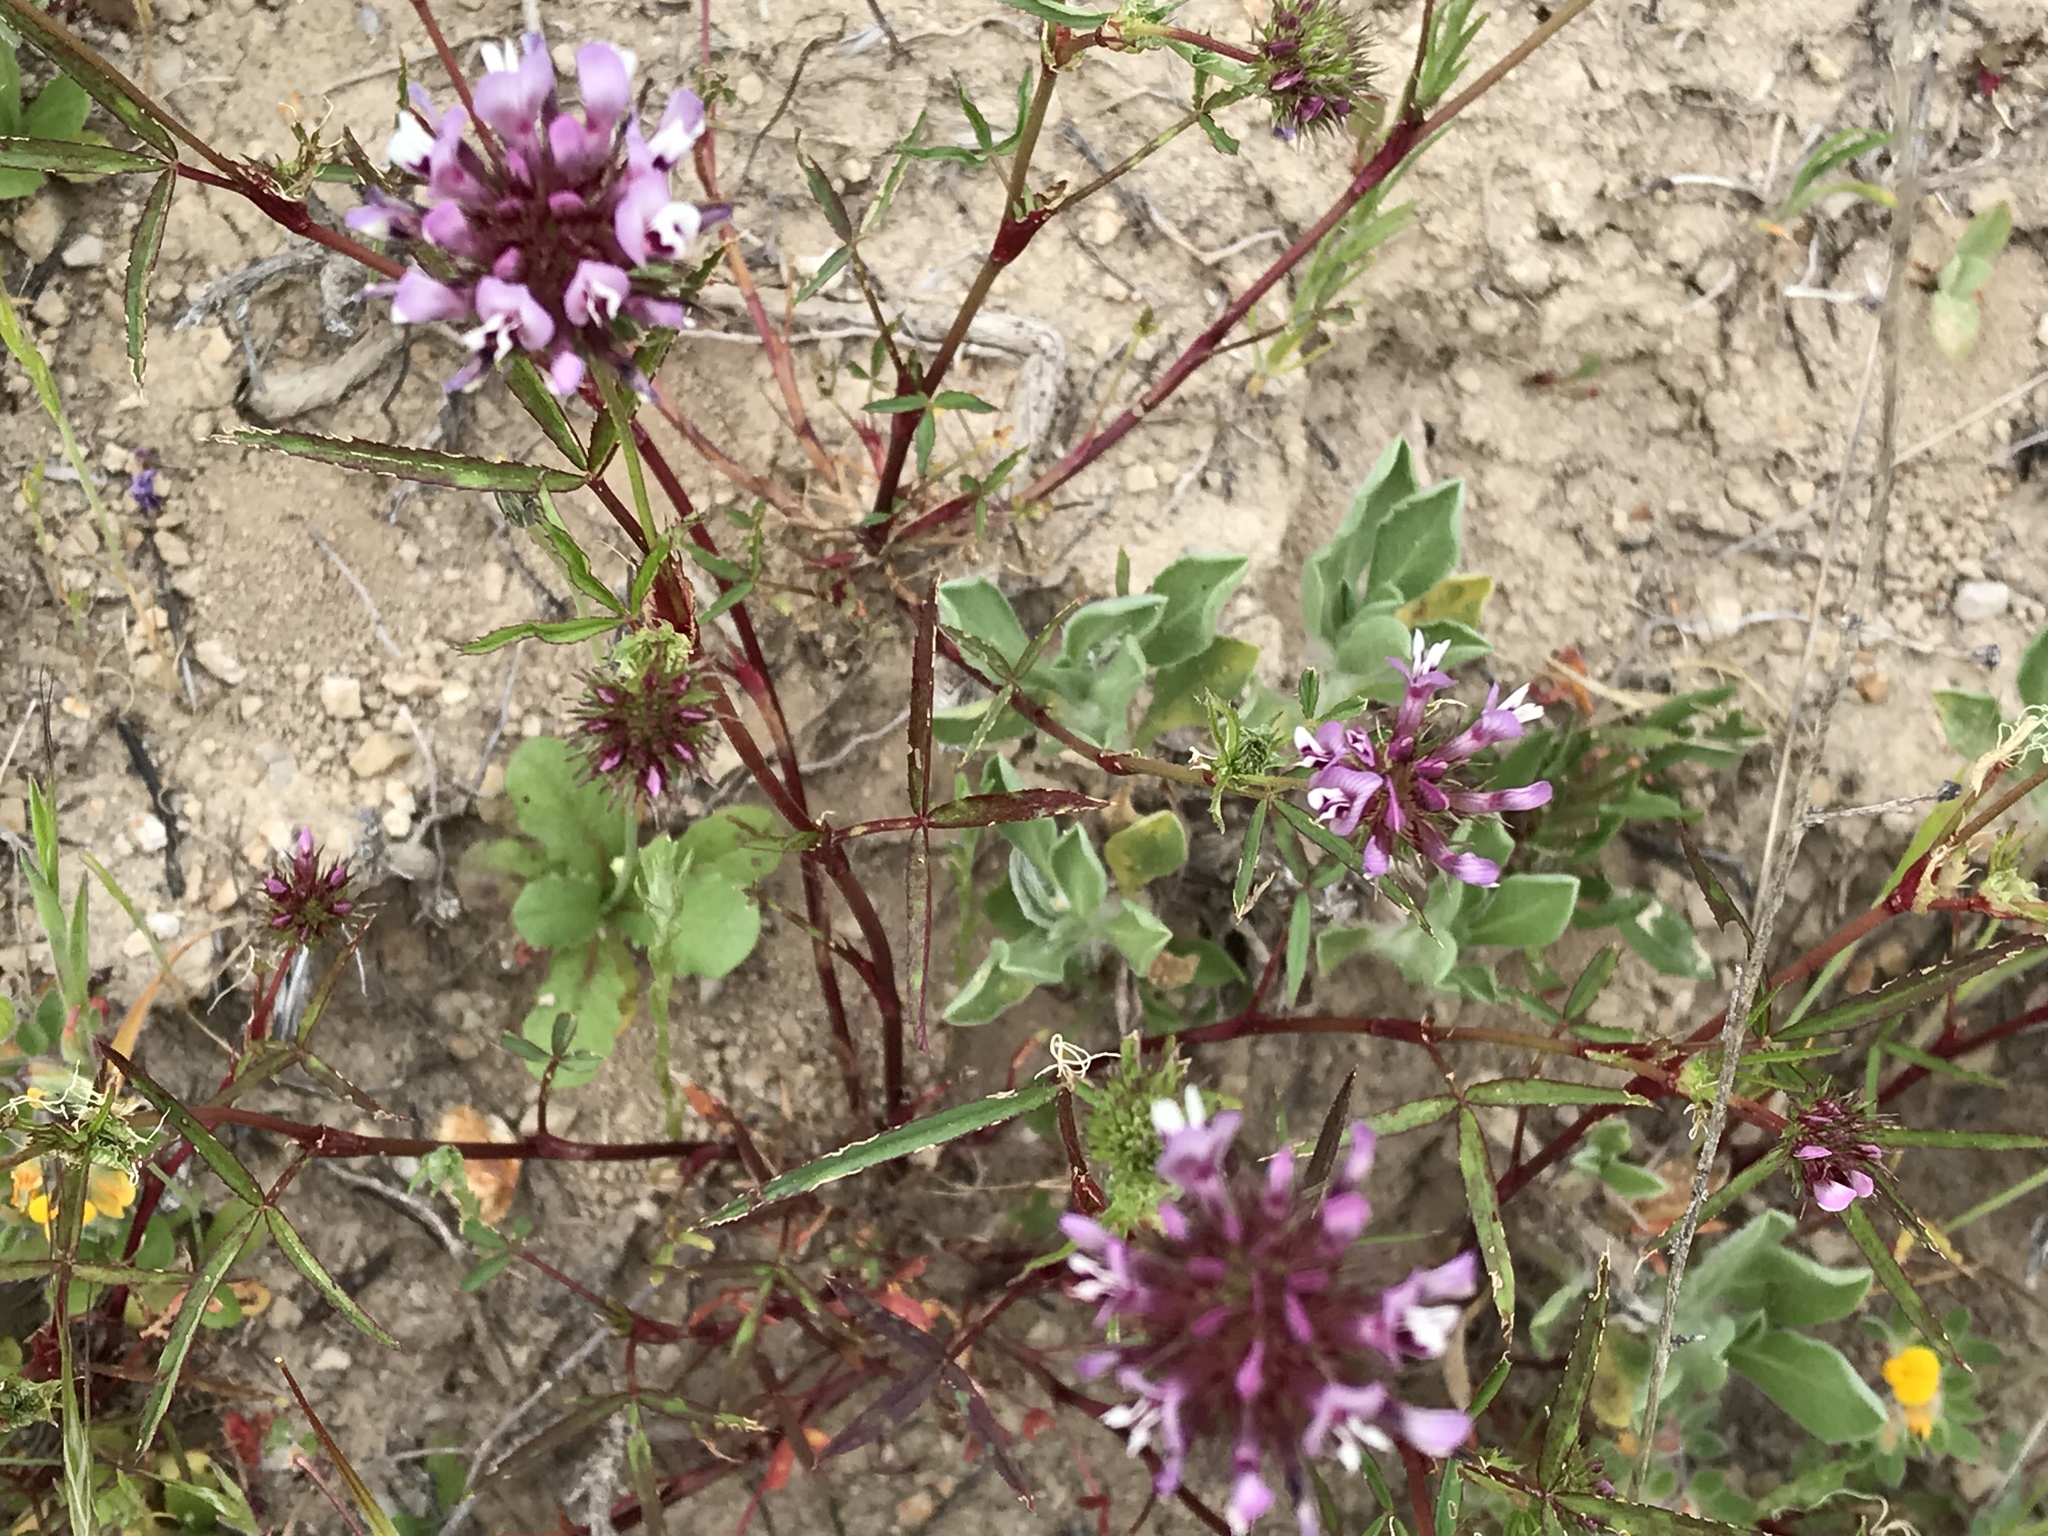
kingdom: Plantae
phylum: Tracheophyta
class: Magnoliopsida
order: Fabales
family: Fabaceae
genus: Trifolium
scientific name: Trifolium willdenovii
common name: Tomcat clover
